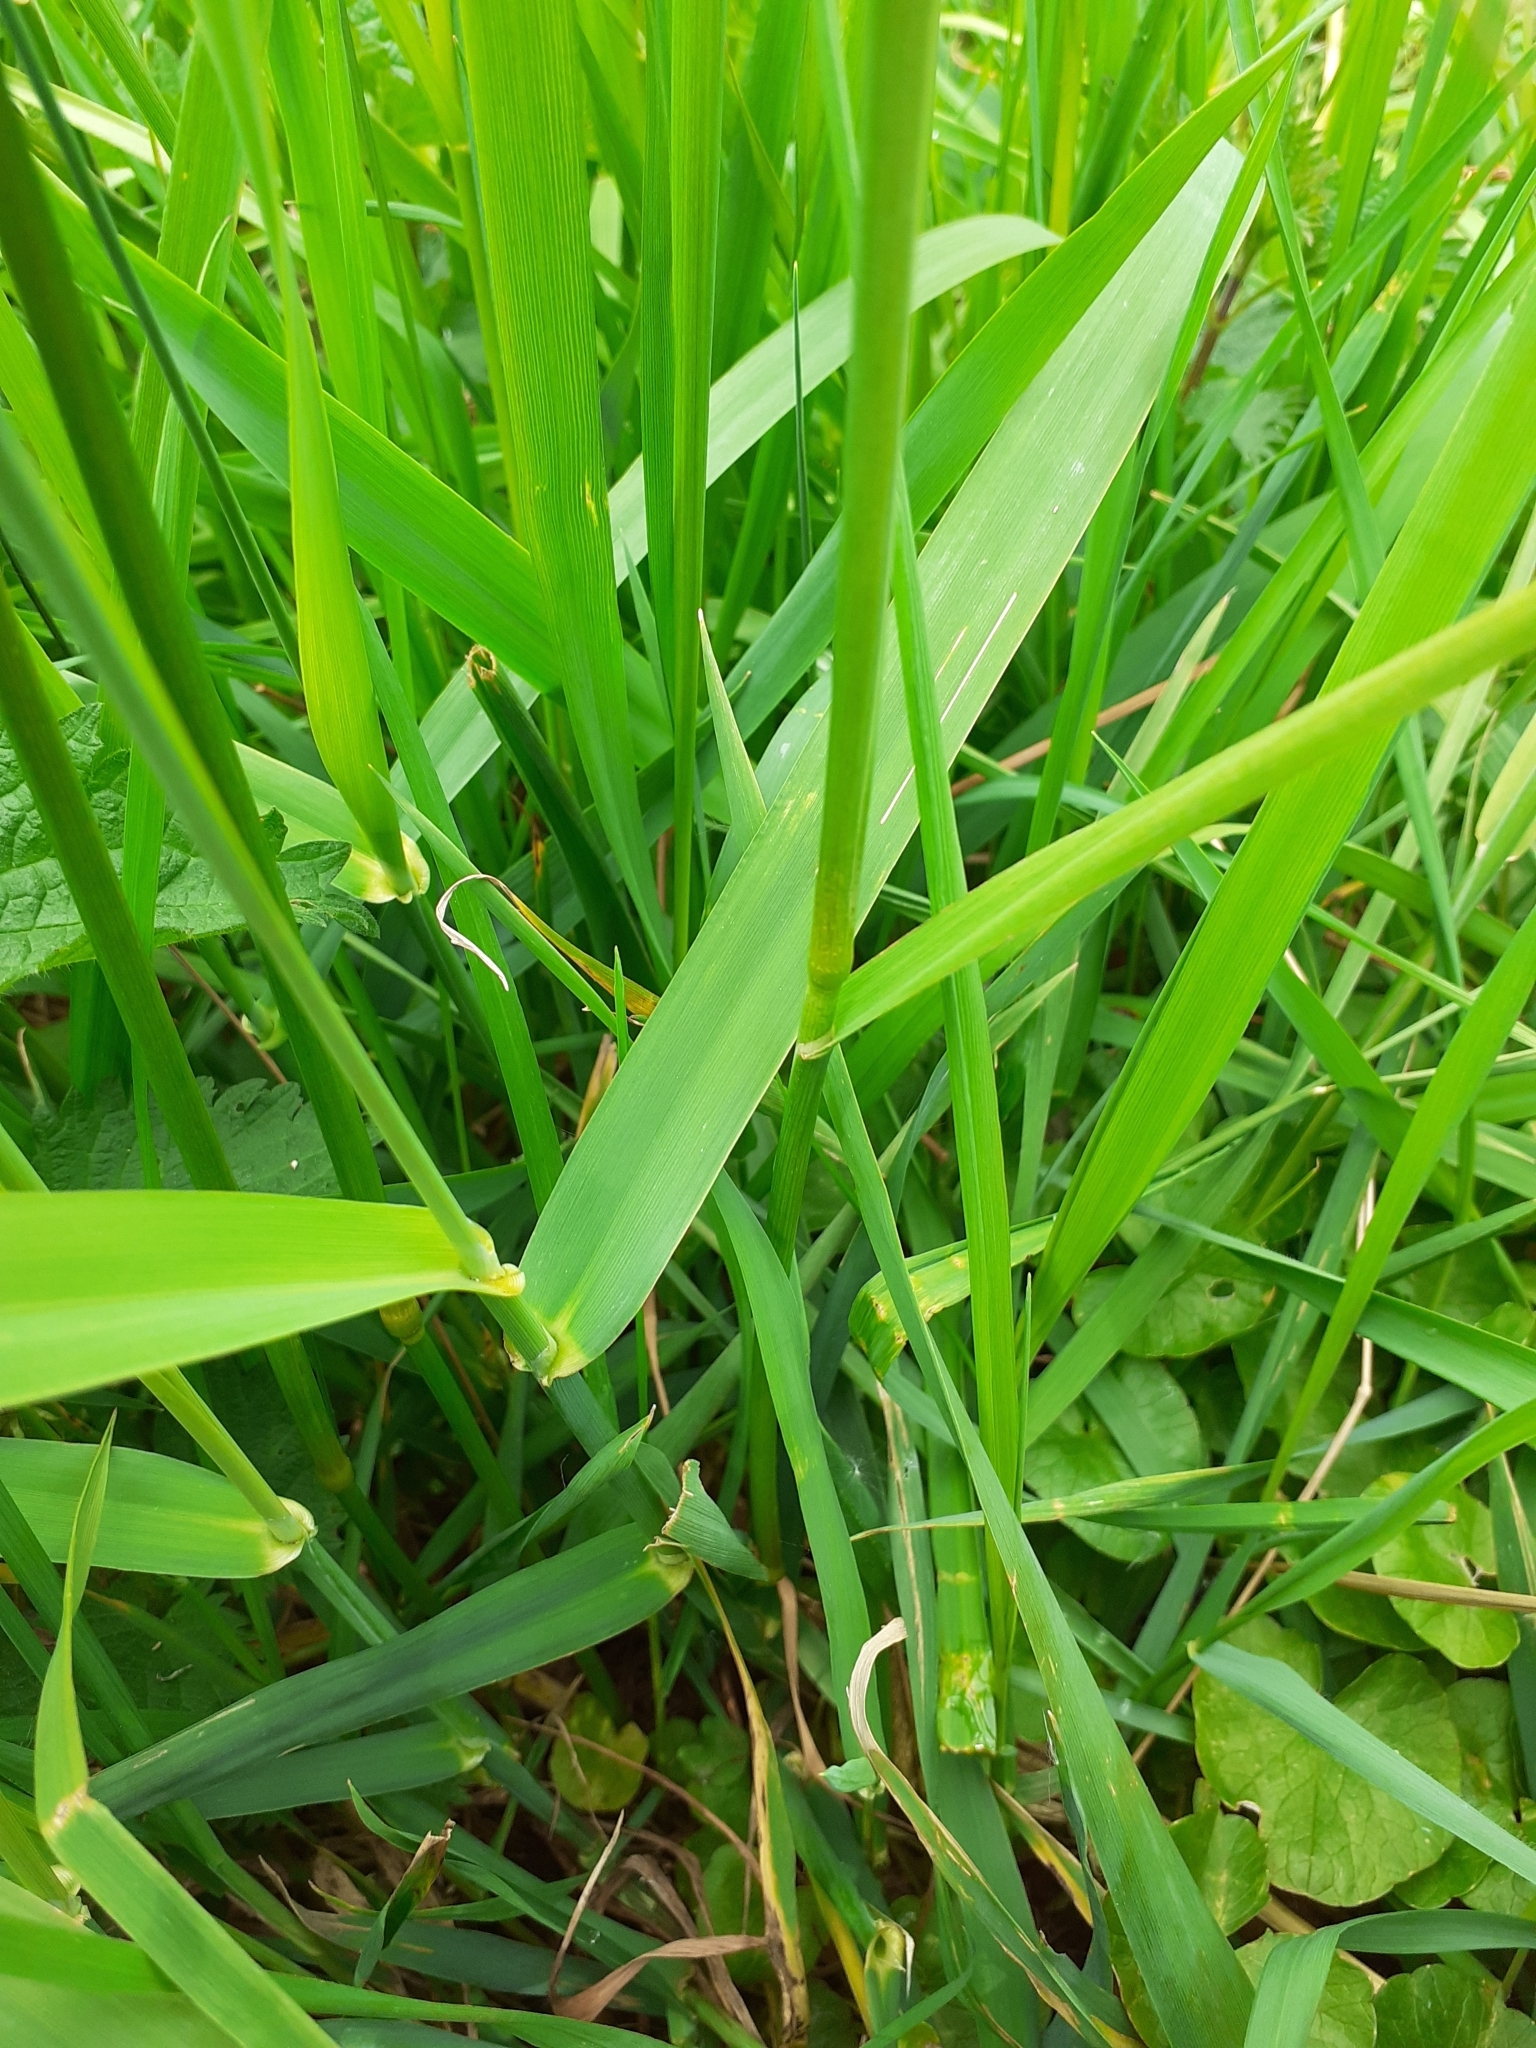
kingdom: Plantae
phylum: Tracheophyta
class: Liliopsida
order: Poales
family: Poaceae
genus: Alopecurus
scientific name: Alopecurus pratensis
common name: Meadow foxtail
